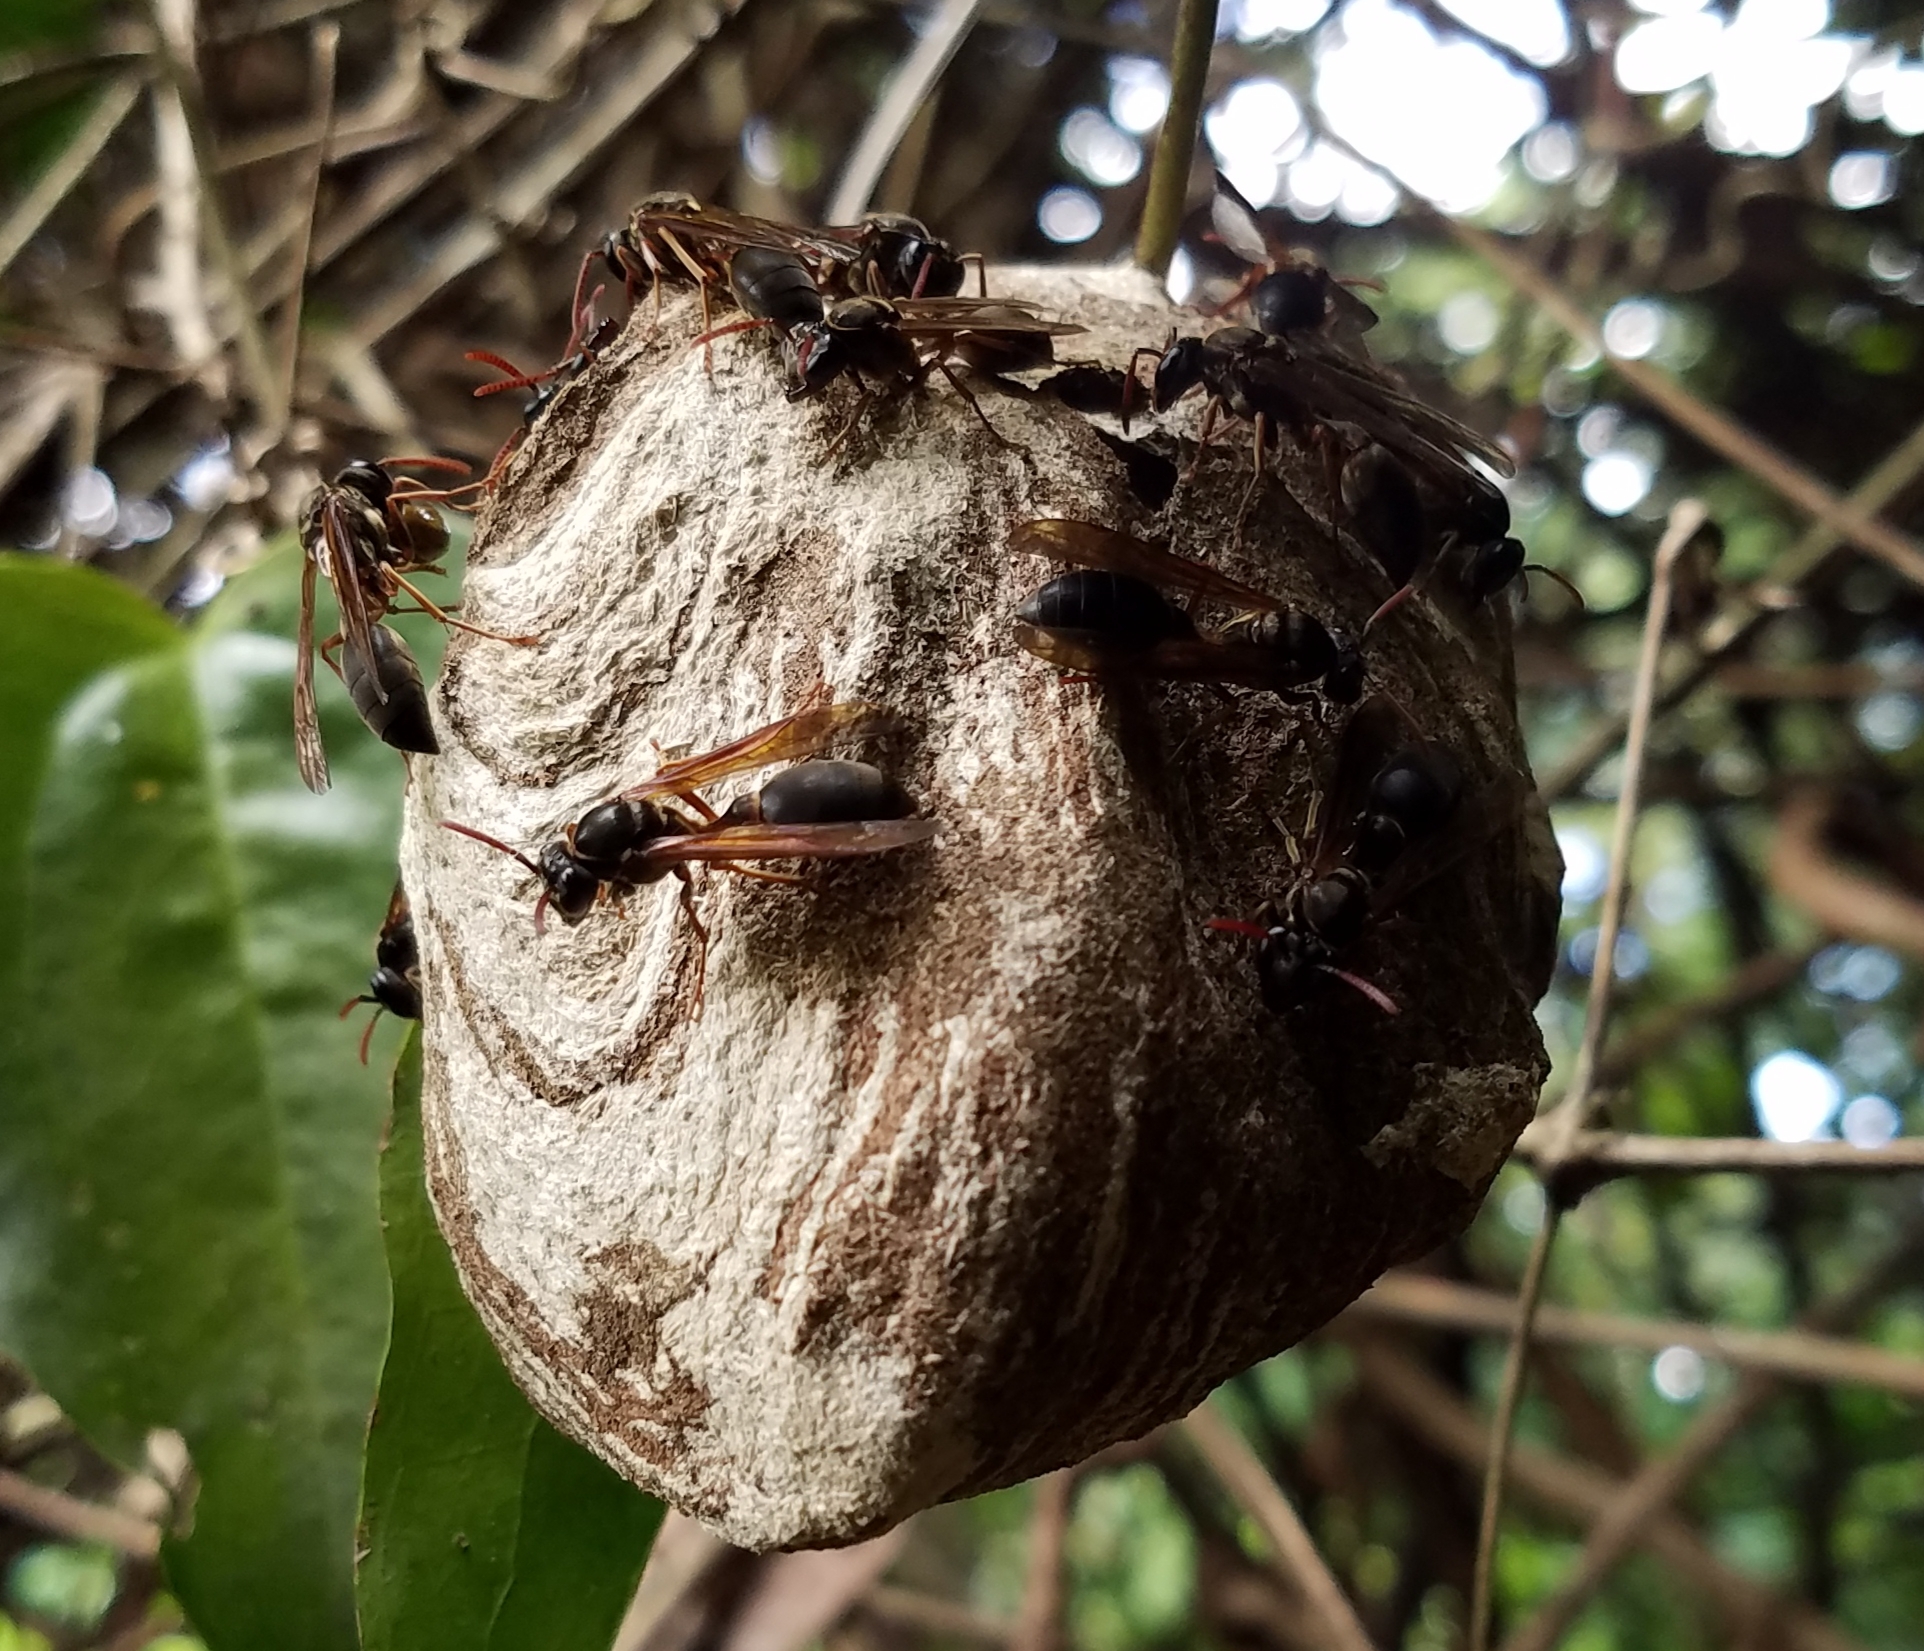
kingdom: Animalia
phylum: Arthropoda
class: Insecta
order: Hymenoptera
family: Eumenidae
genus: Polybia
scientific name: Polybia flavitincta
